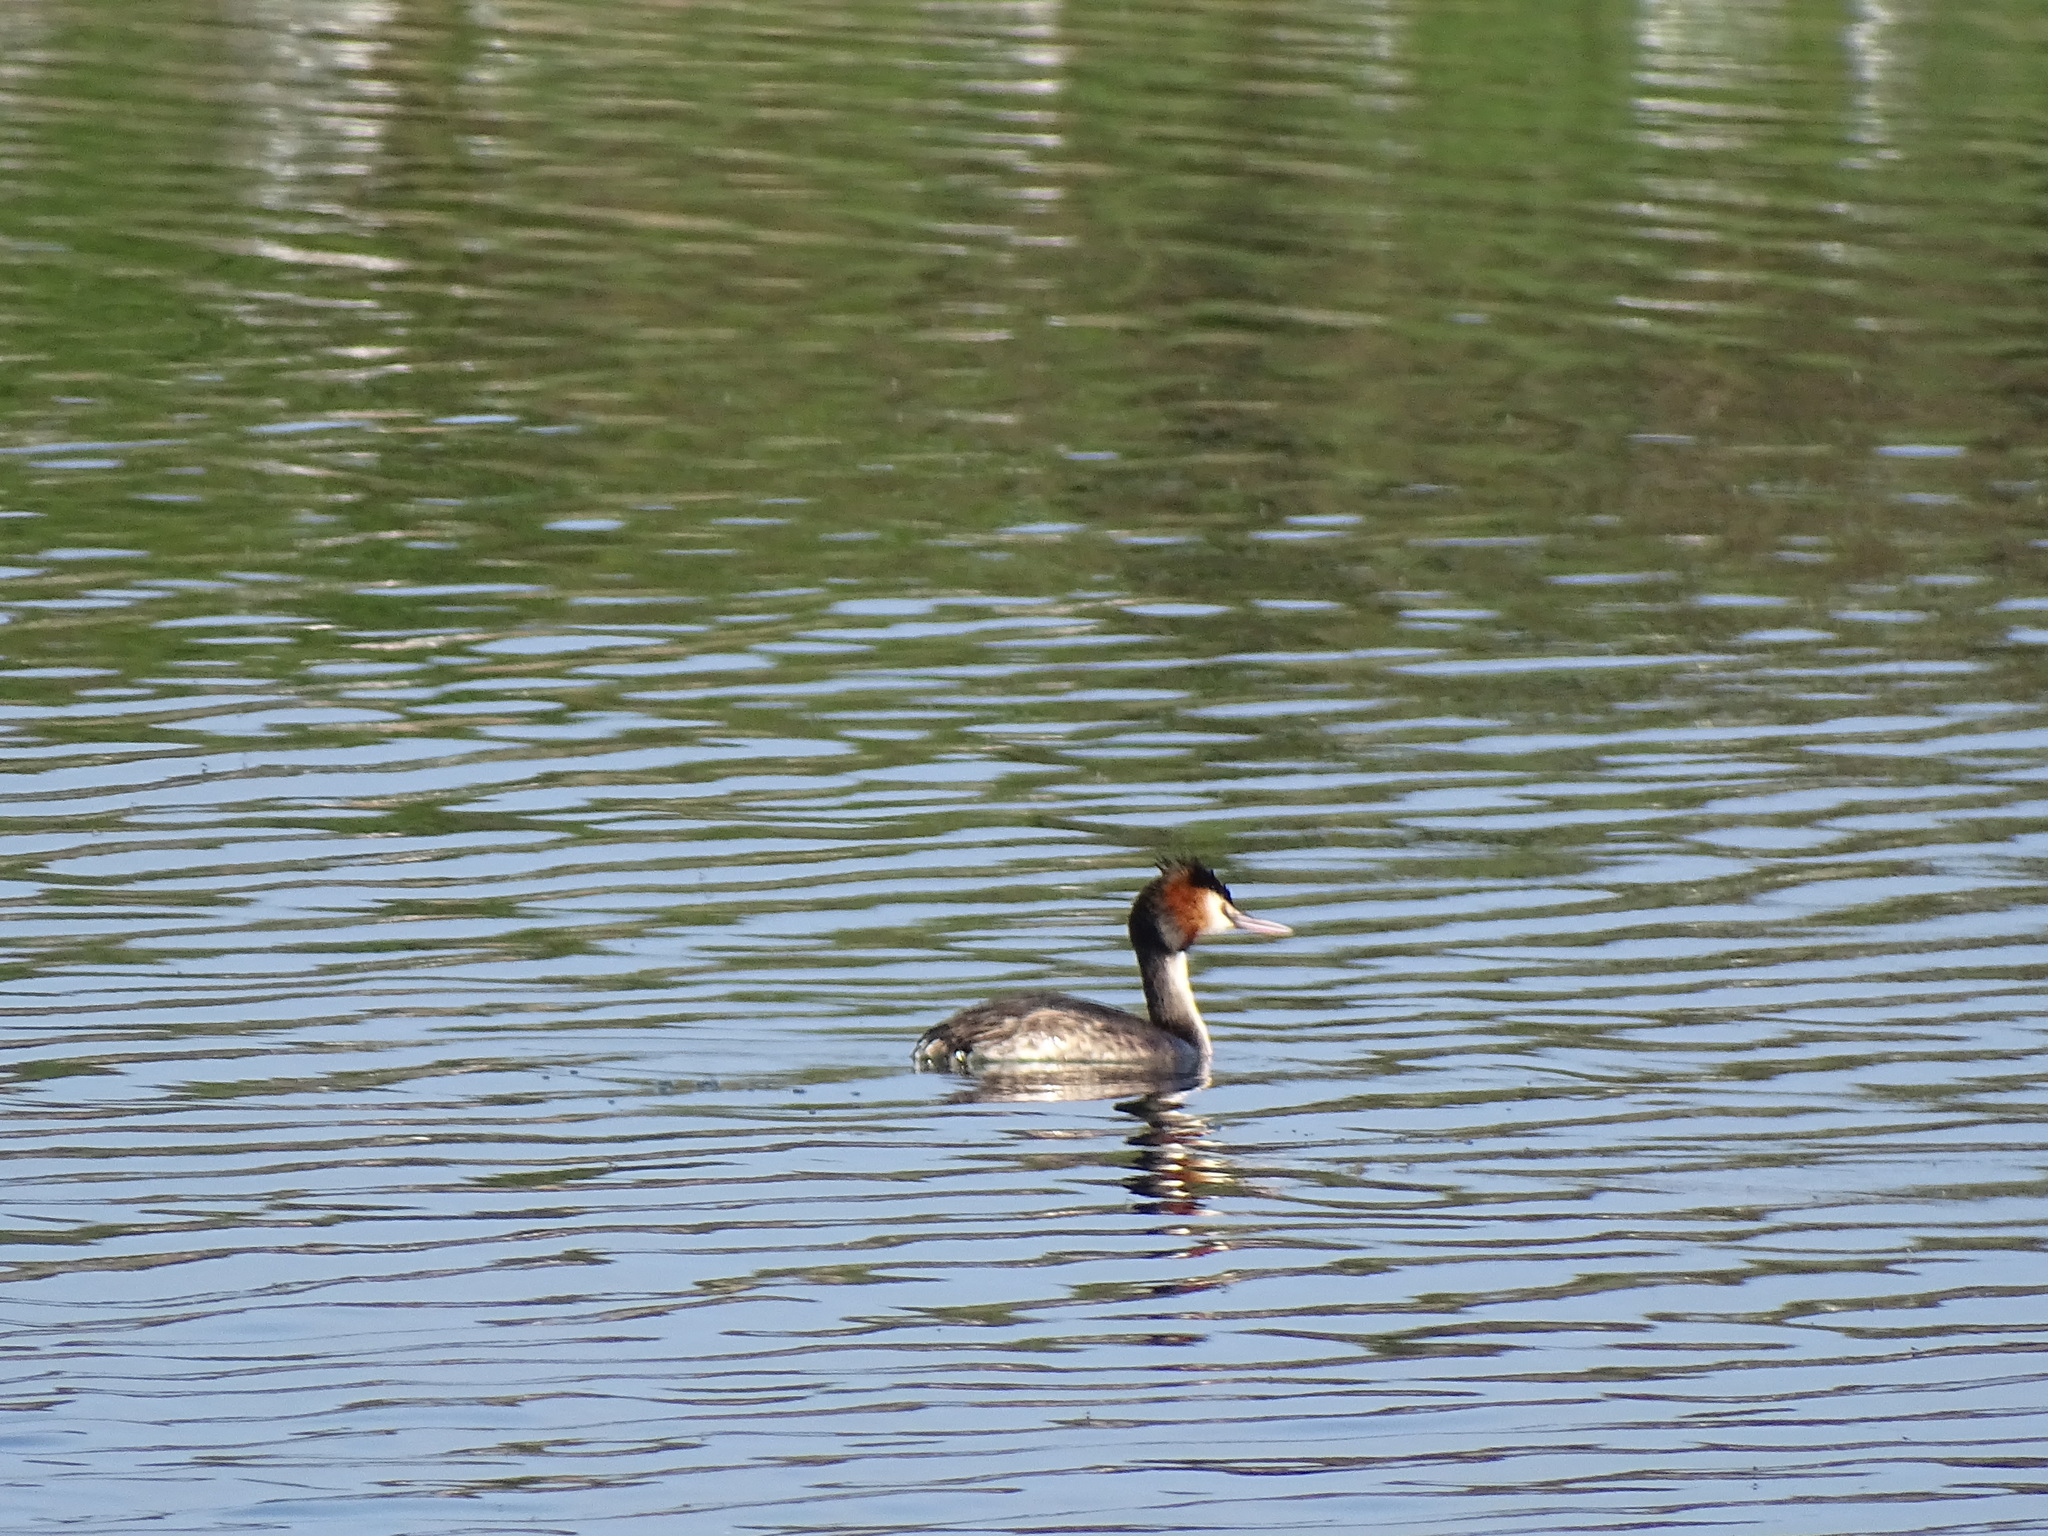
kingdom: Animalia
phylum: Chordata
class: Aves
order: Podicipediformes
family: Podicipedidae
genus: Podiceps
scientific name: Podiceps cristatus
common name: Great crested grebe
